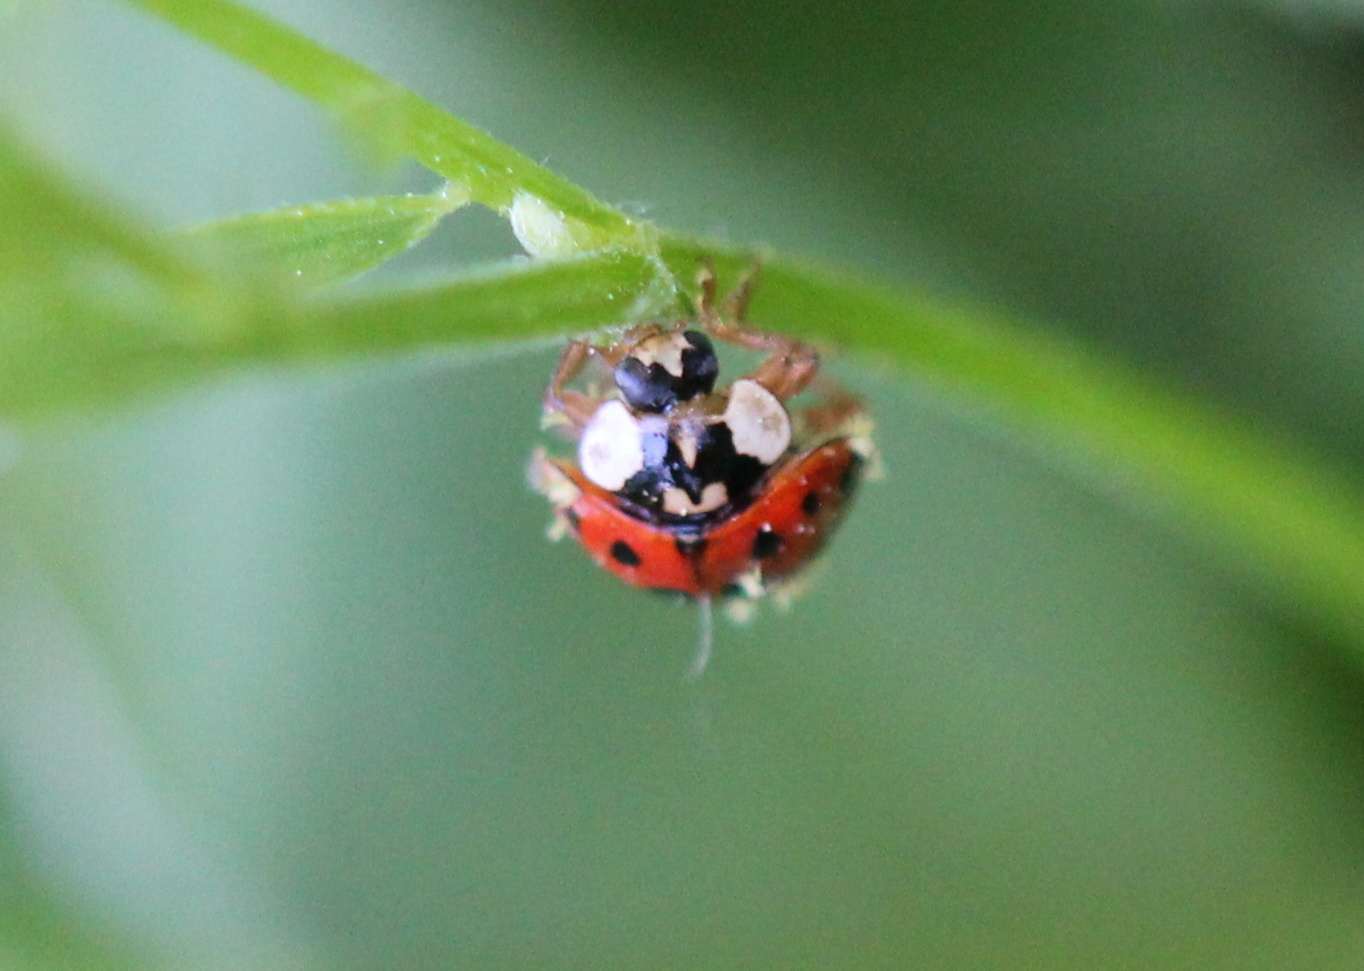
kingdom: Animalia
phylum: Arthropoda
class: Insecta
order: Coleoptera
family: Coccinellidae
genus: Harmonia
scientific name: Harmonia axyridis
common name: Harlequin ladybird
